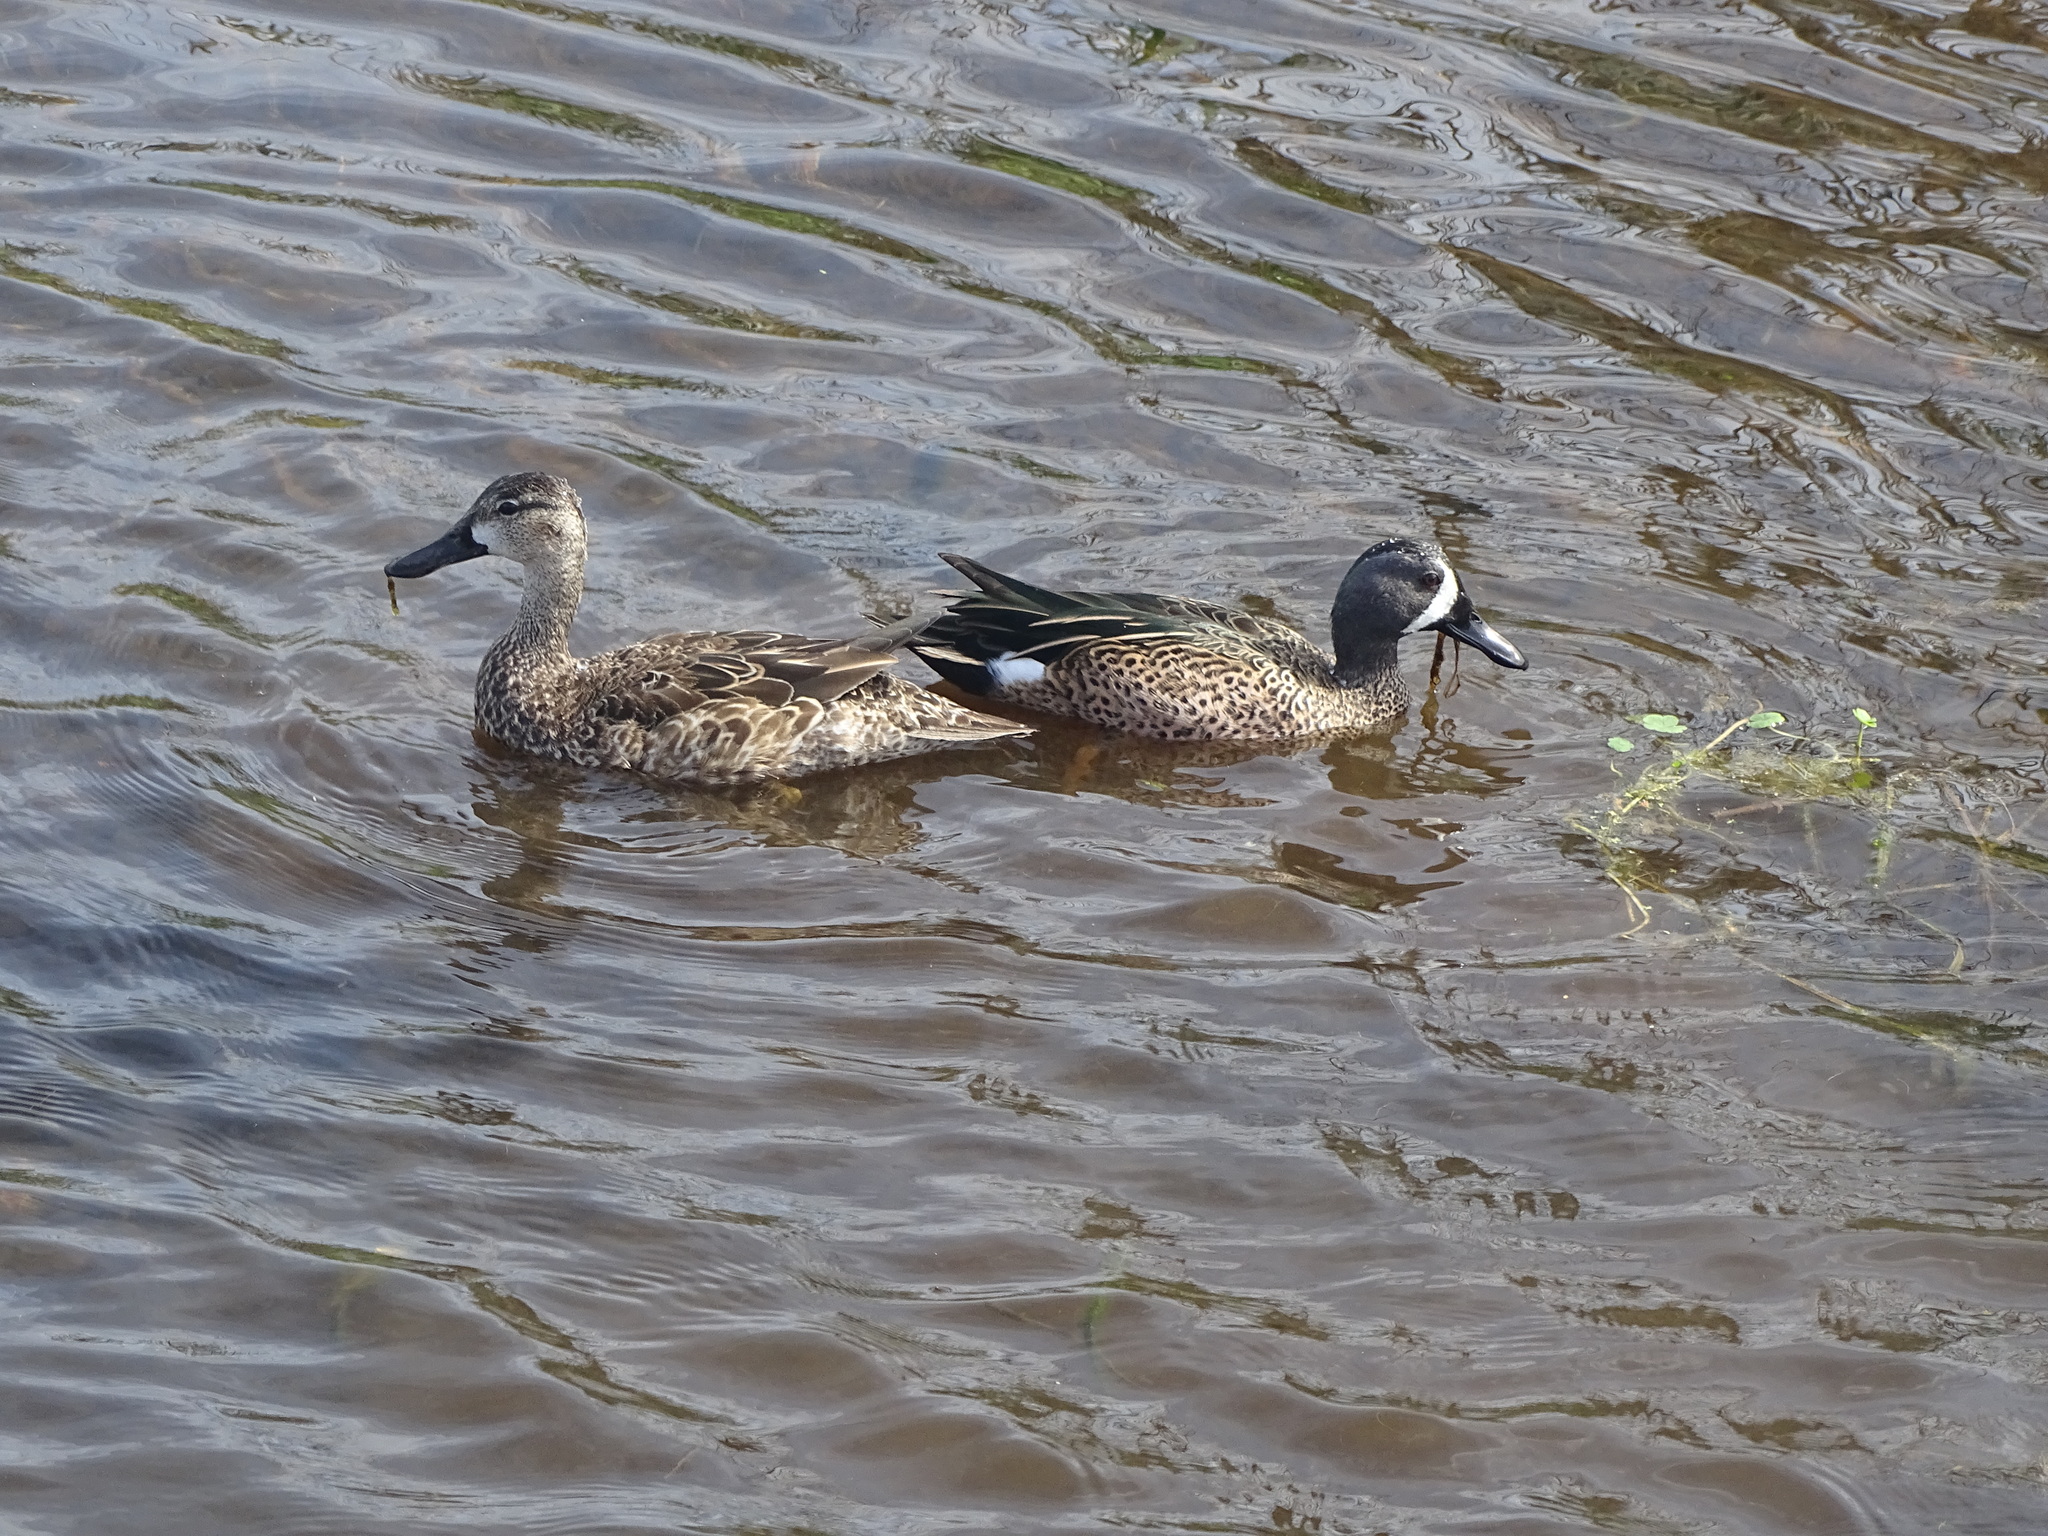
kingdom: Animalia
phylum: Chordata
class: Aves
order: Anseriformes
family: Anatidae
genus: Spatula
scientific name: Spatula discors
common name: Blue-winged teal
